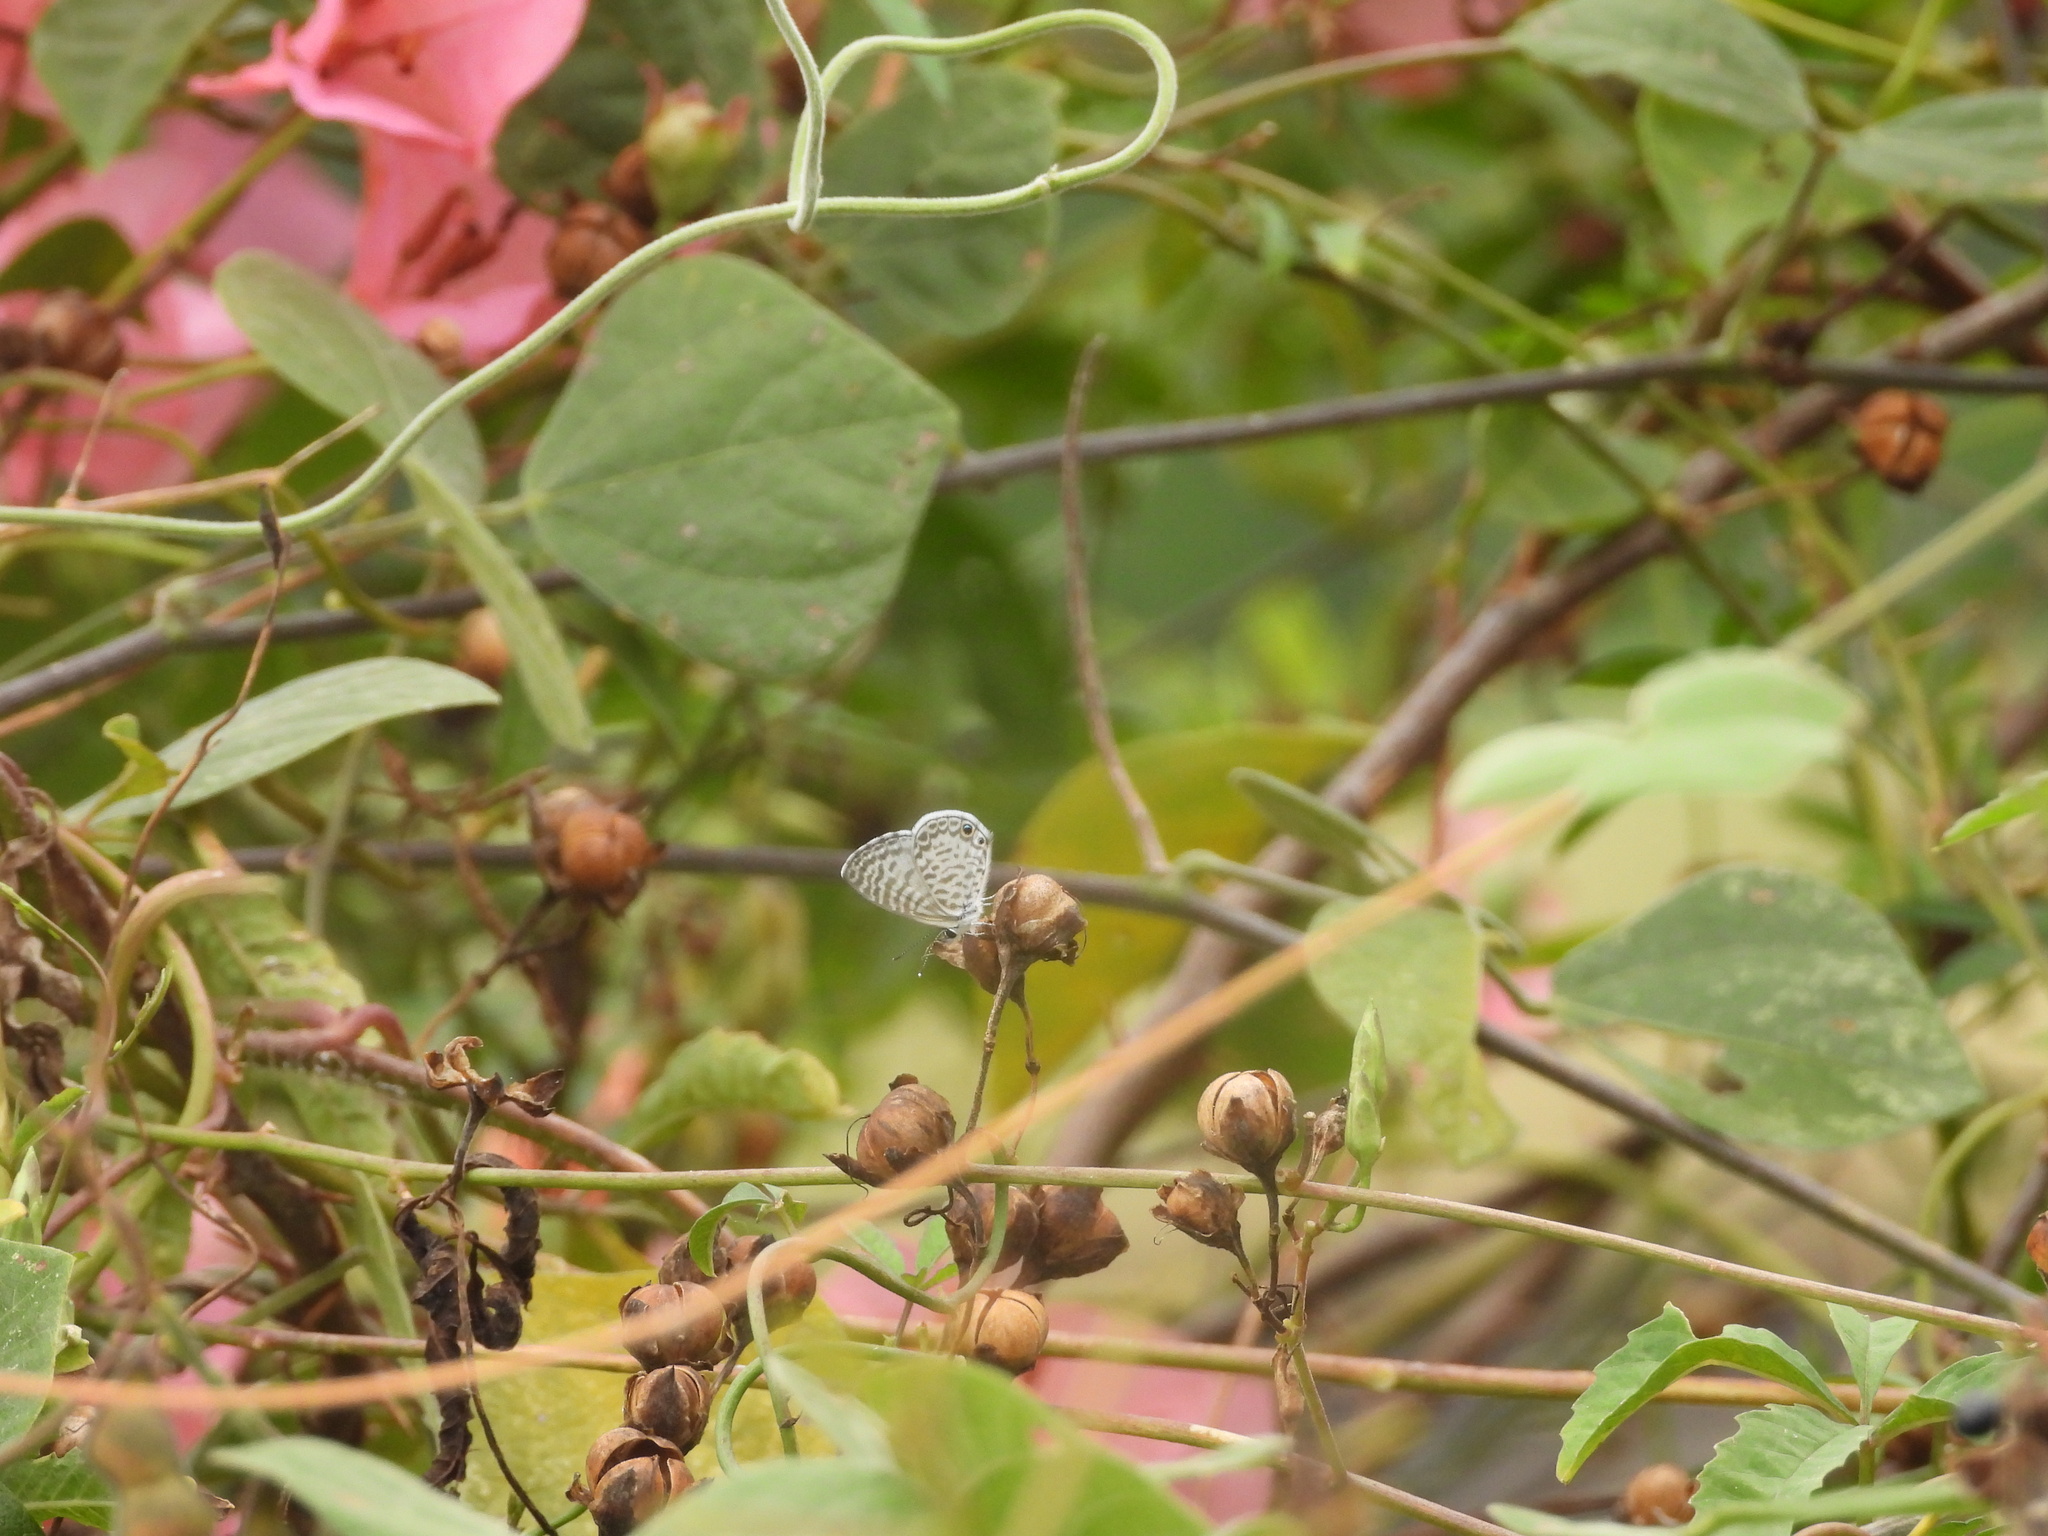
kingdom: Animalia
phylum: Arthropoda
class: Insecta
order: Lepidoptera
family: Lycaenidae
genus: Leptotes
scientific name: Leptotes cassius
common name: Cassius blue
